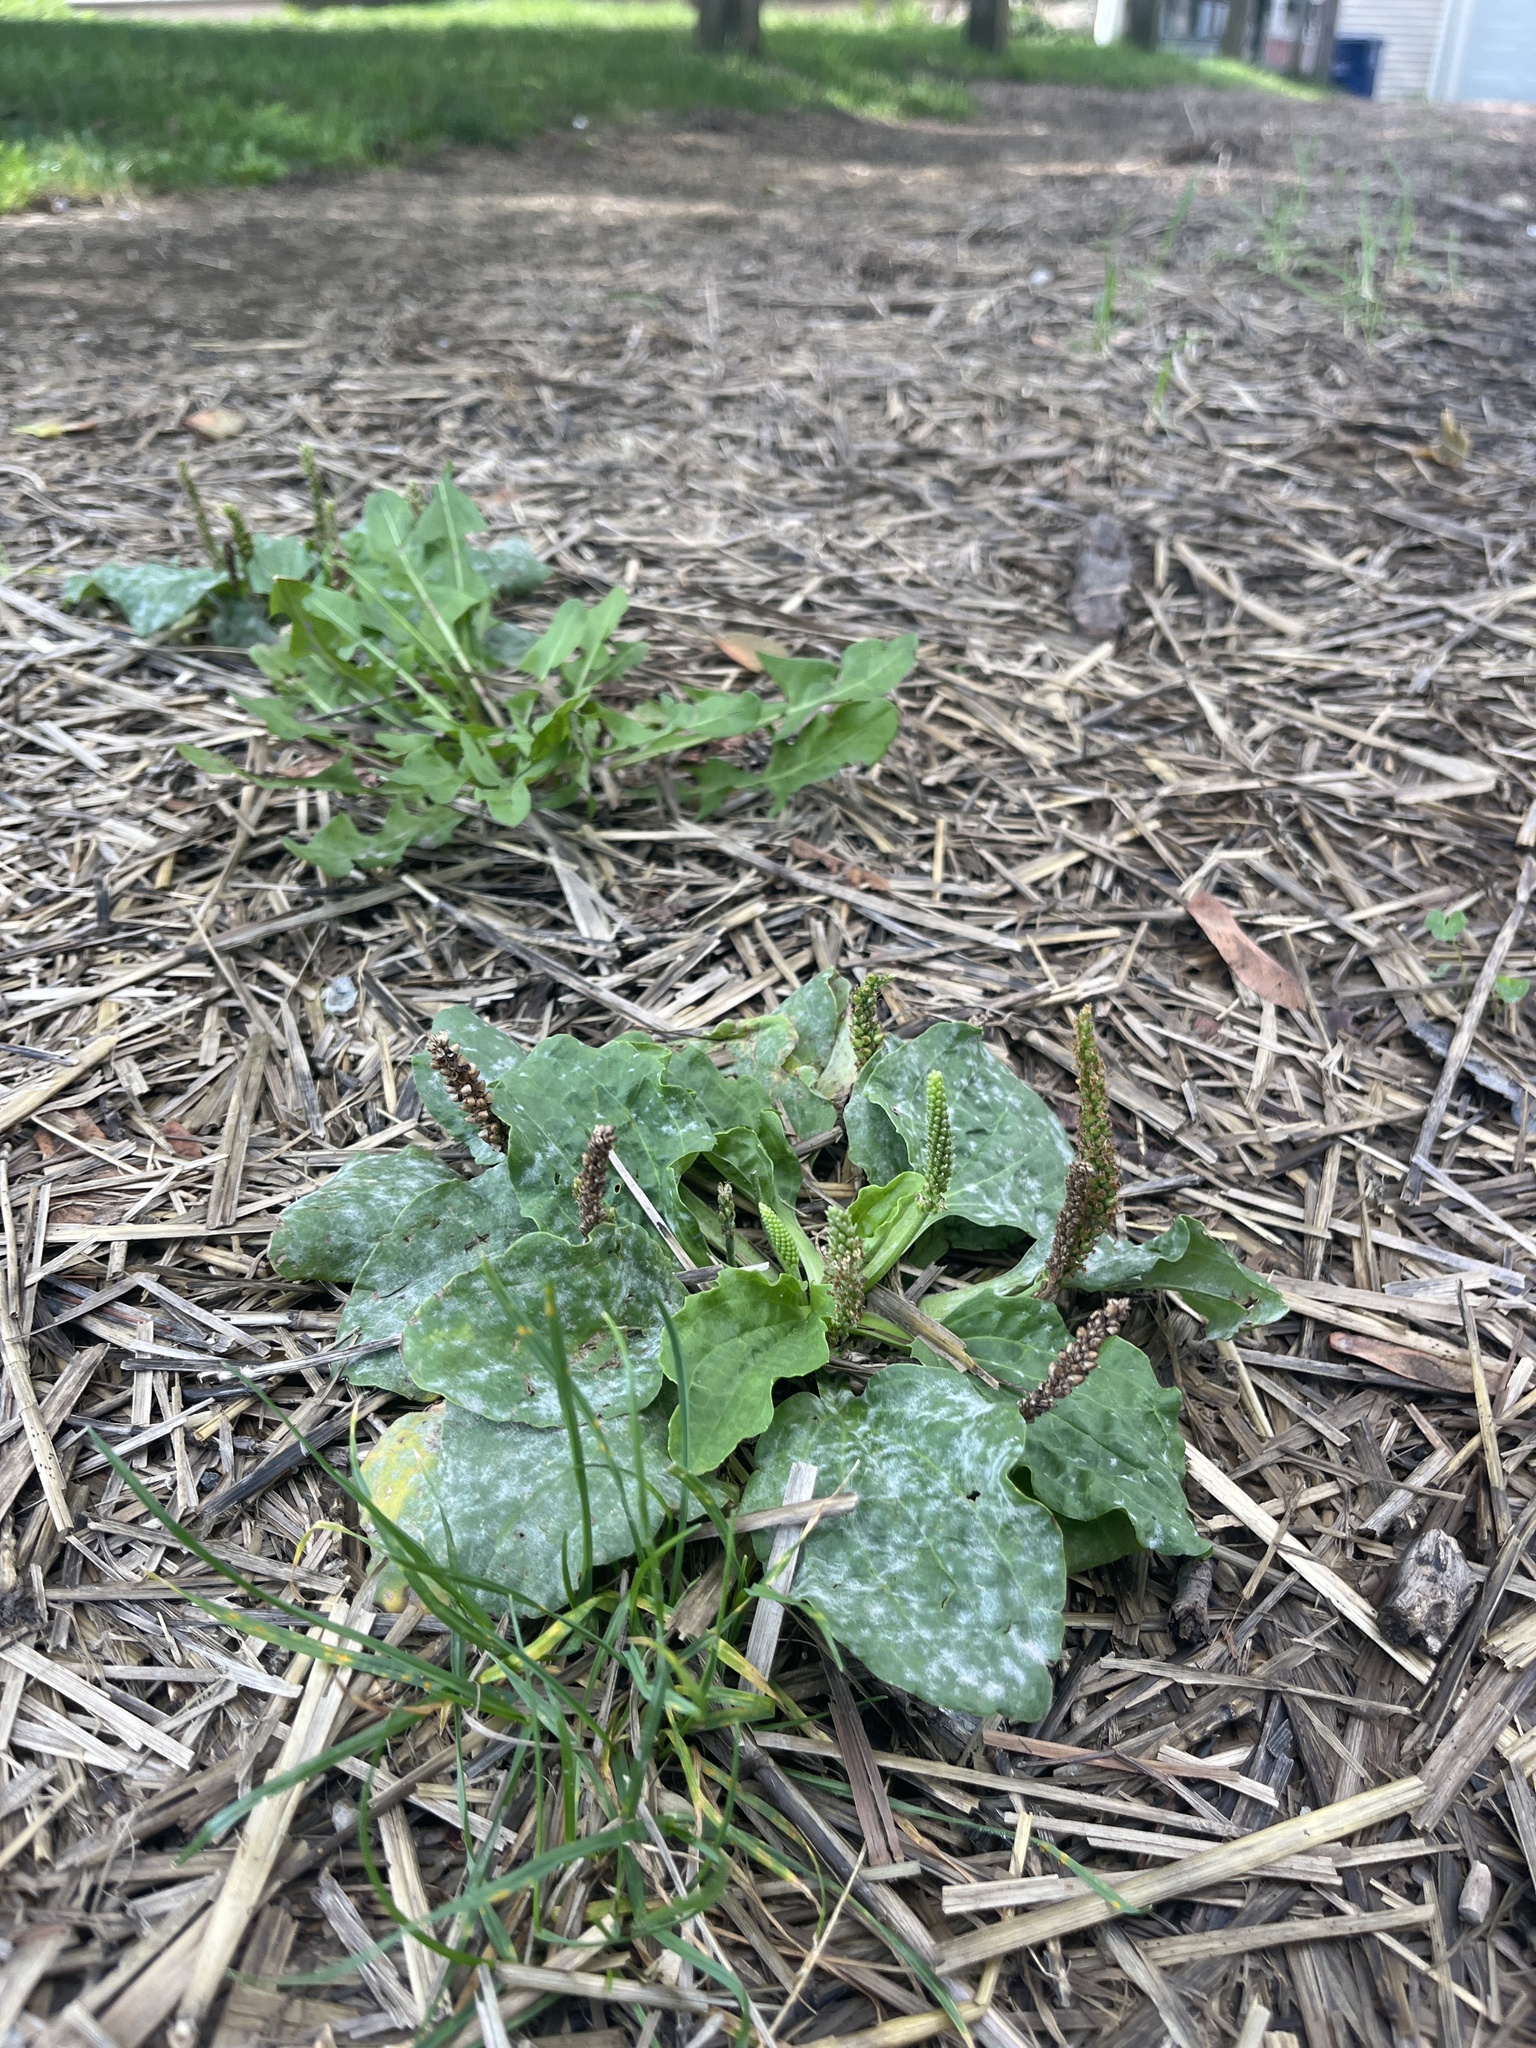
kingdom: Plantae
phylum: Tracheophyta
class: Magnoliopsida
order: Lamiales
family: Plantaginaceae
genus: Plantago
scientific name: Plantago major
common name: Common plantain
